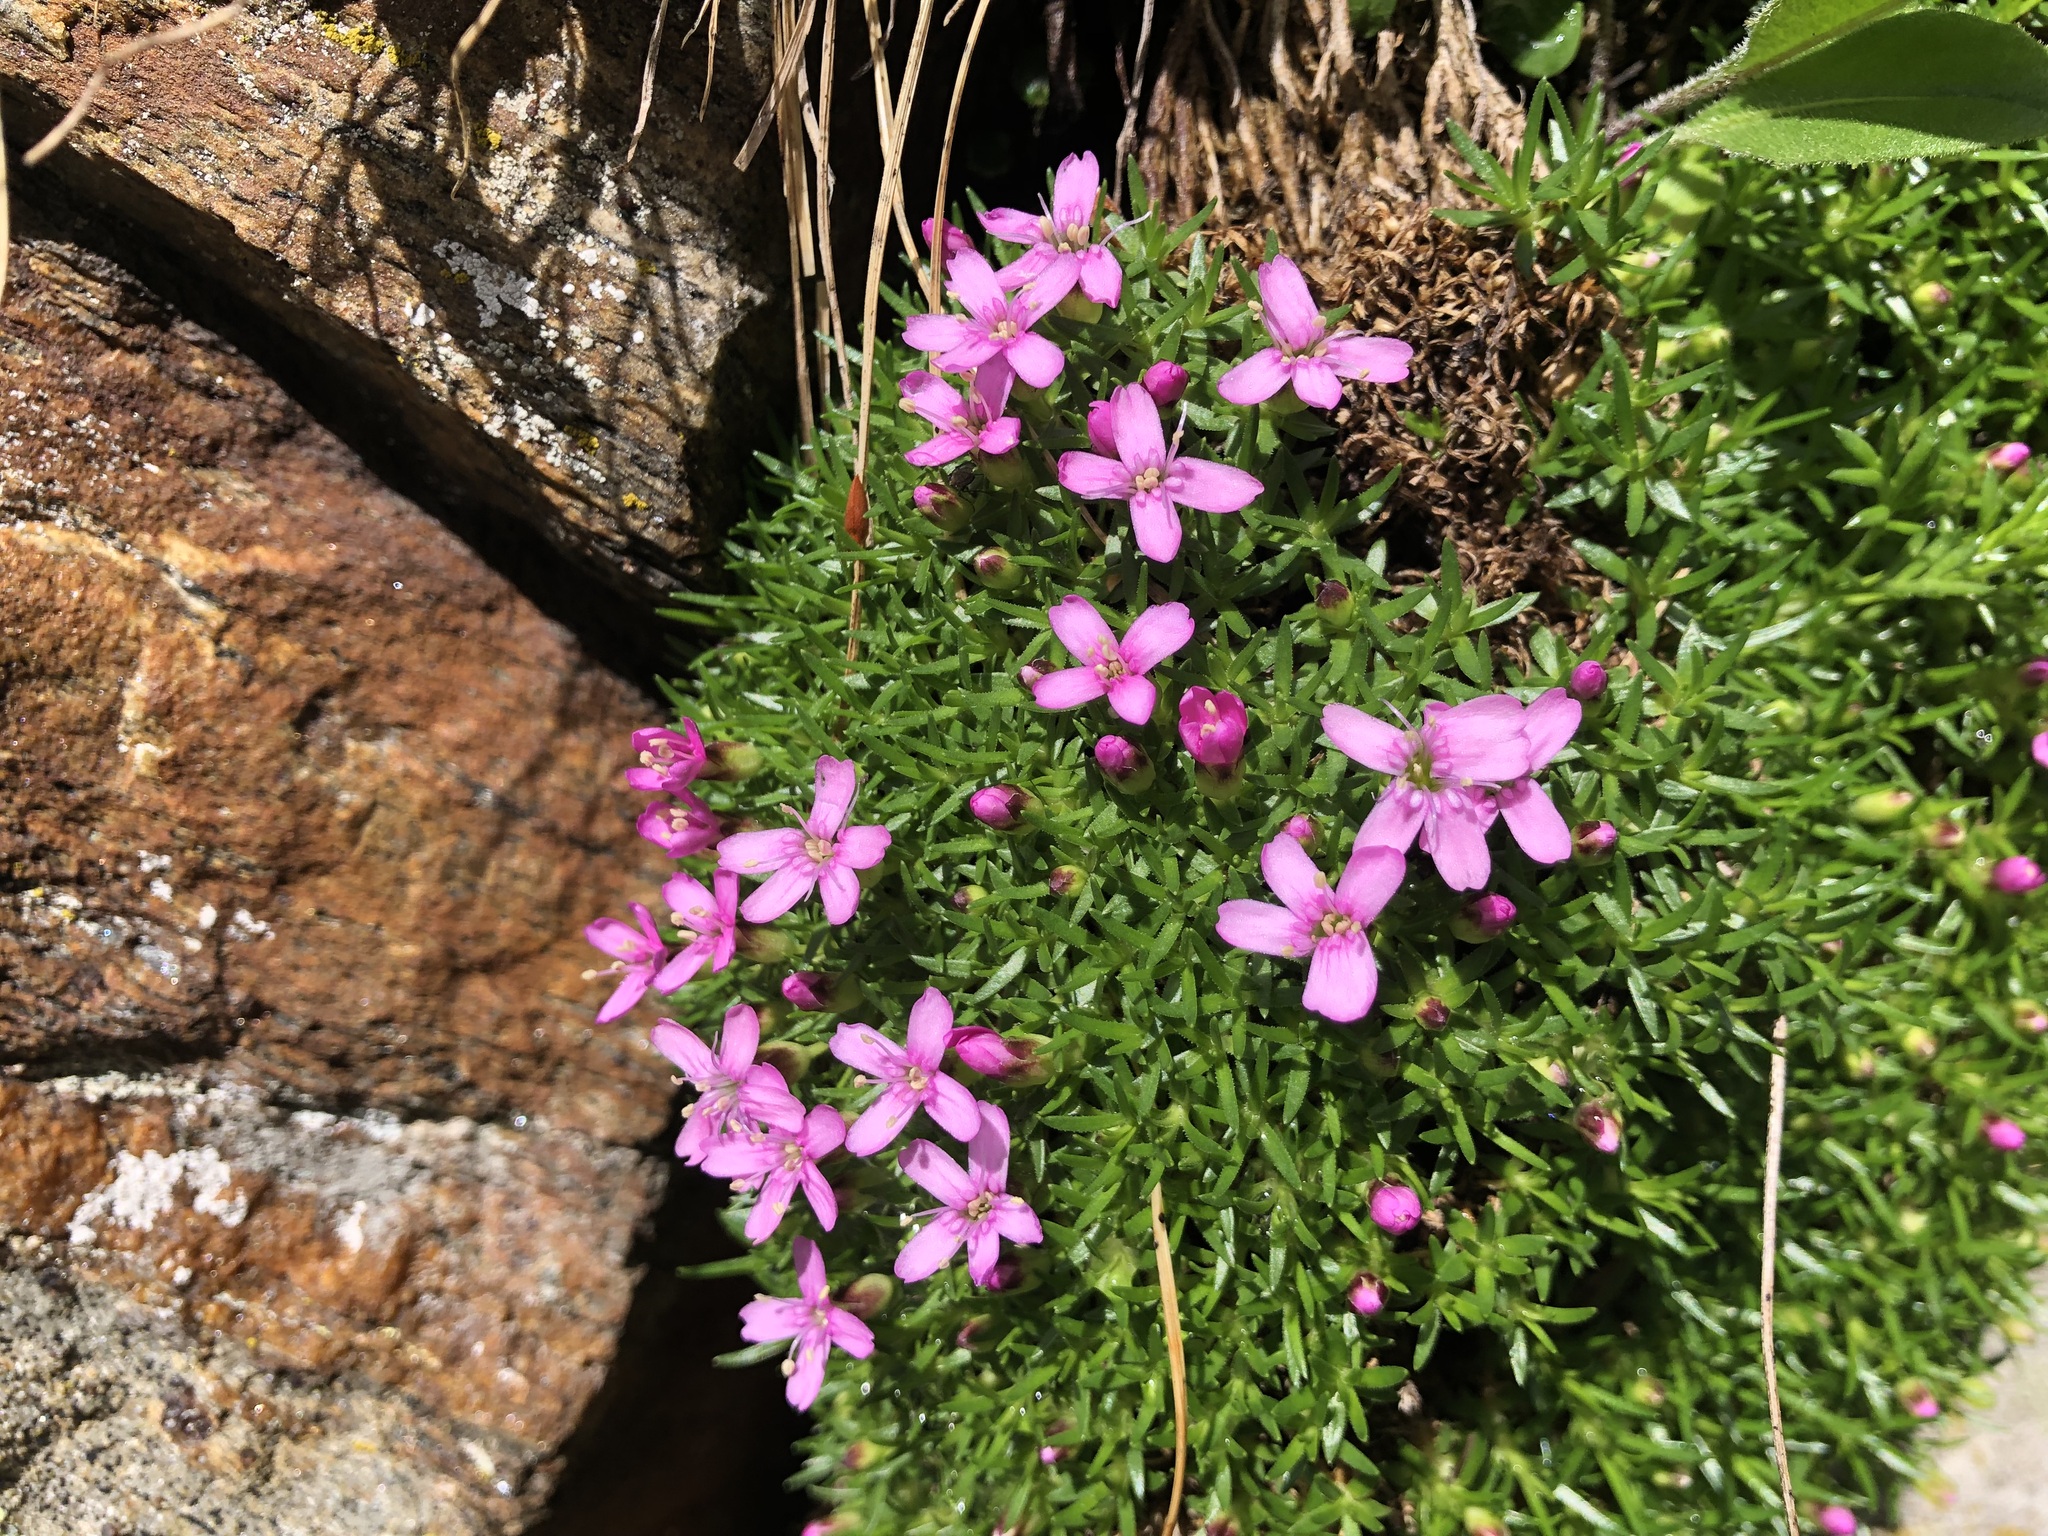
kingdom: Plantae
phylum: Tracheophyta
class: Magnoliopsida
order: Caryophyllales
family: Caryophyllaceae
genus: Silene
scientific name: Silene acaulis
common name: Moss campion
